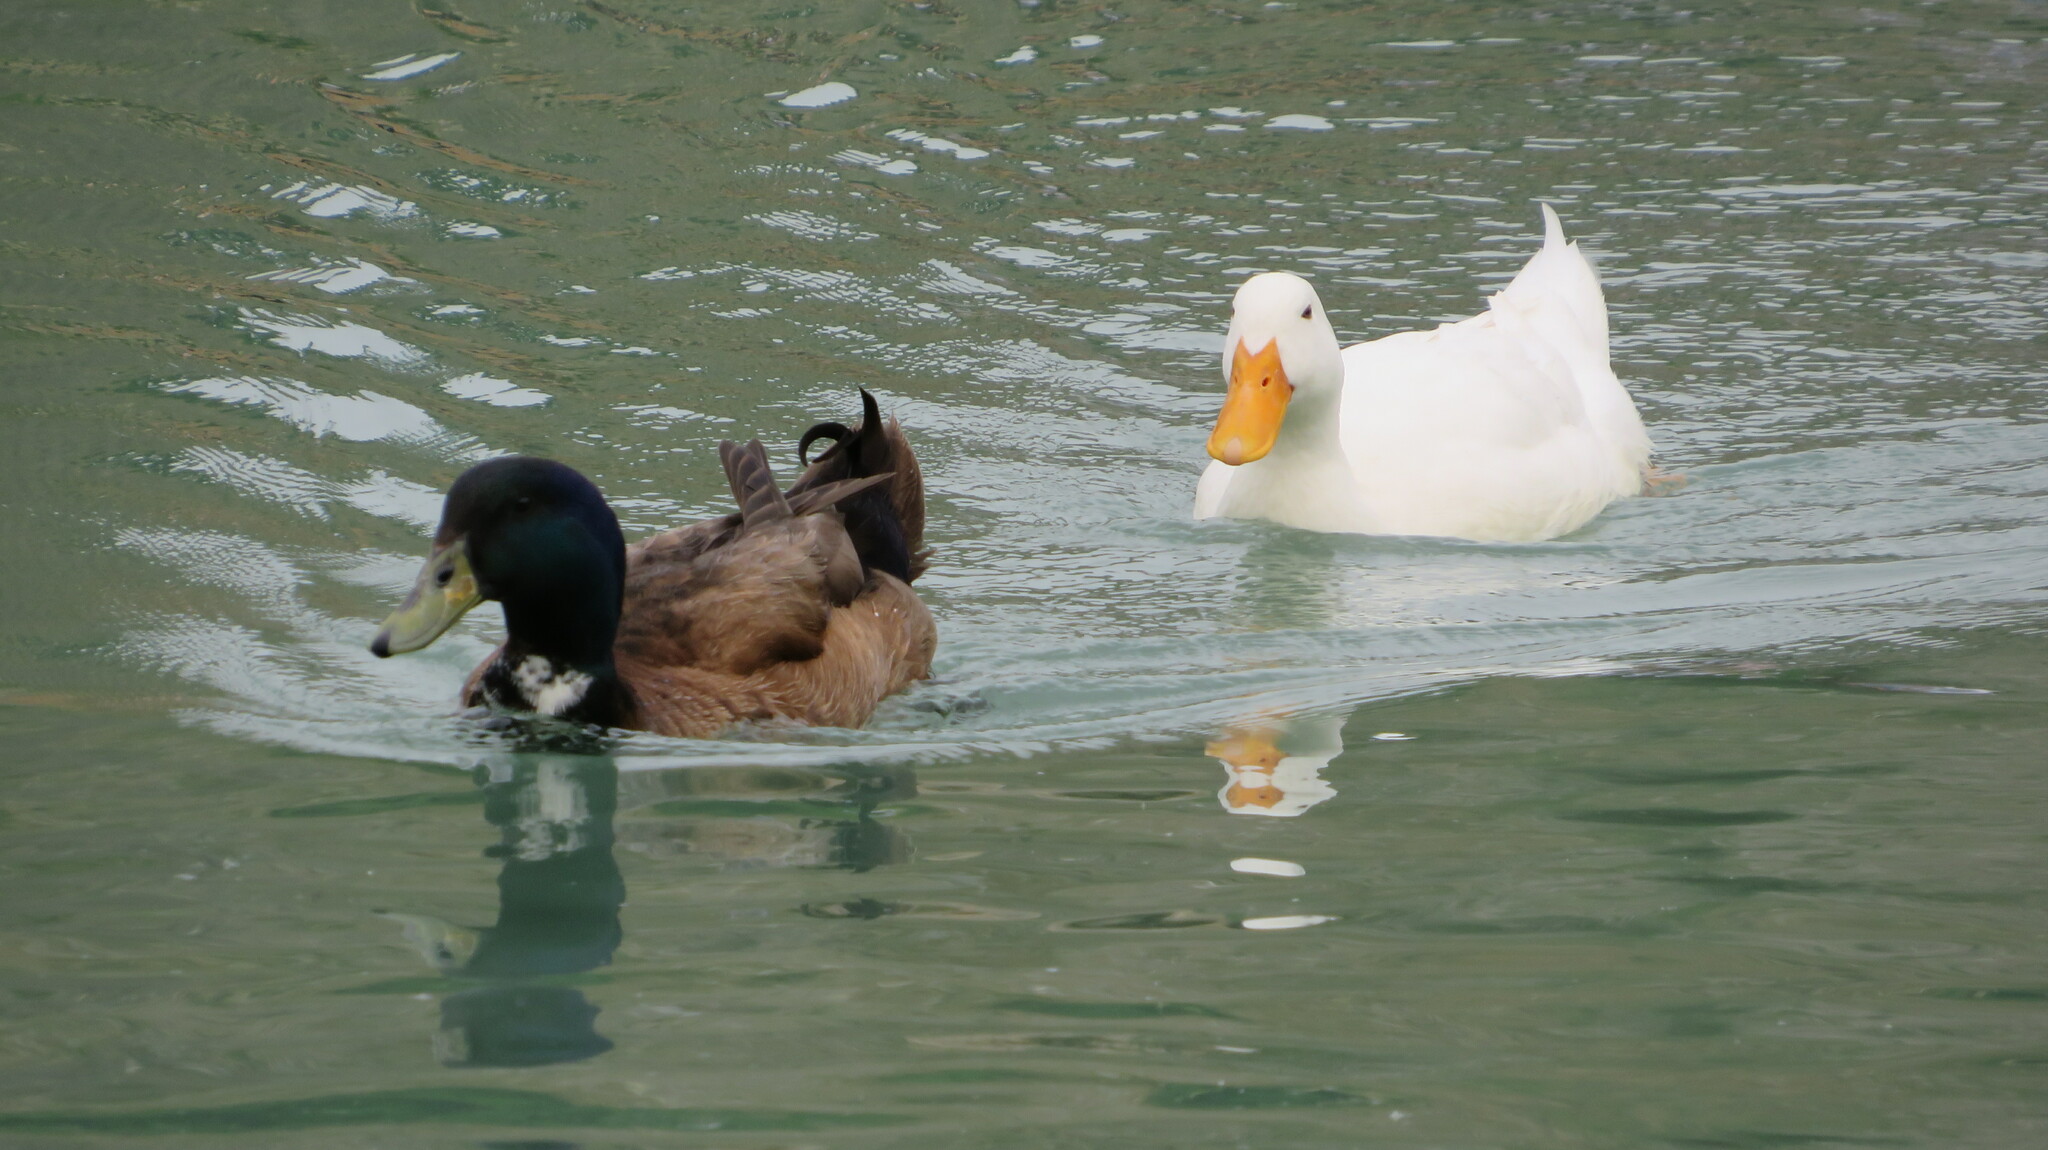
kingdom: Animalia
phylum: Chordata
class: Aves
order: Anseriformes
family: Anatidae
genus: Anas
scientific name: Anas platyrhynchos
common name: Mallard
